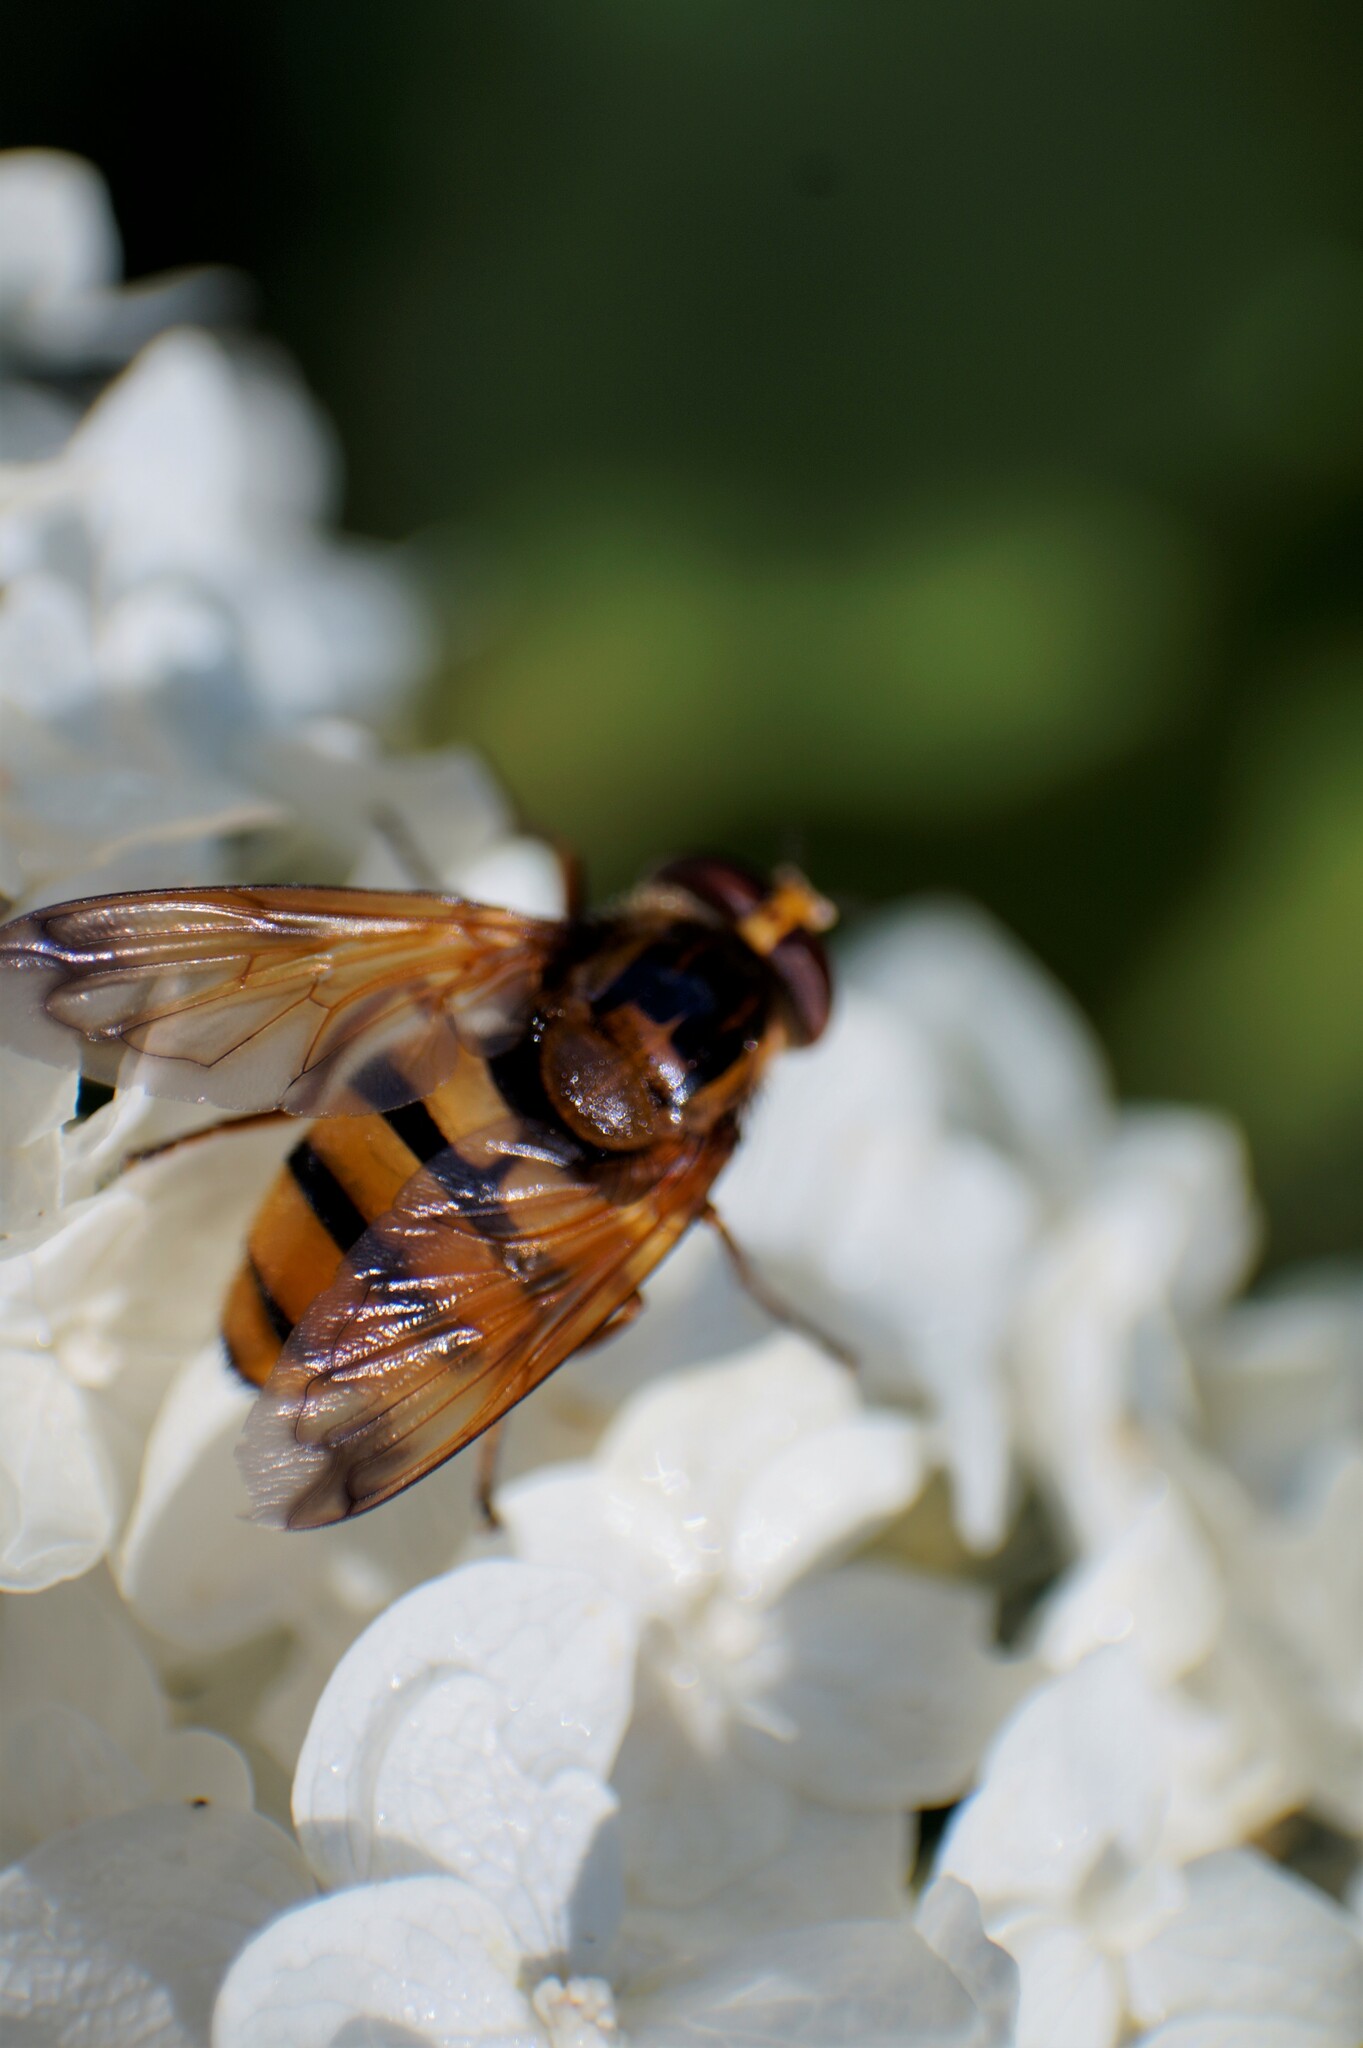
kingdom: Animalia
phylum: Arthropoda
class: Insecta
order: Diptera
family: Syrphidae
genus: Volucella
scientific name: Volucella inanis
